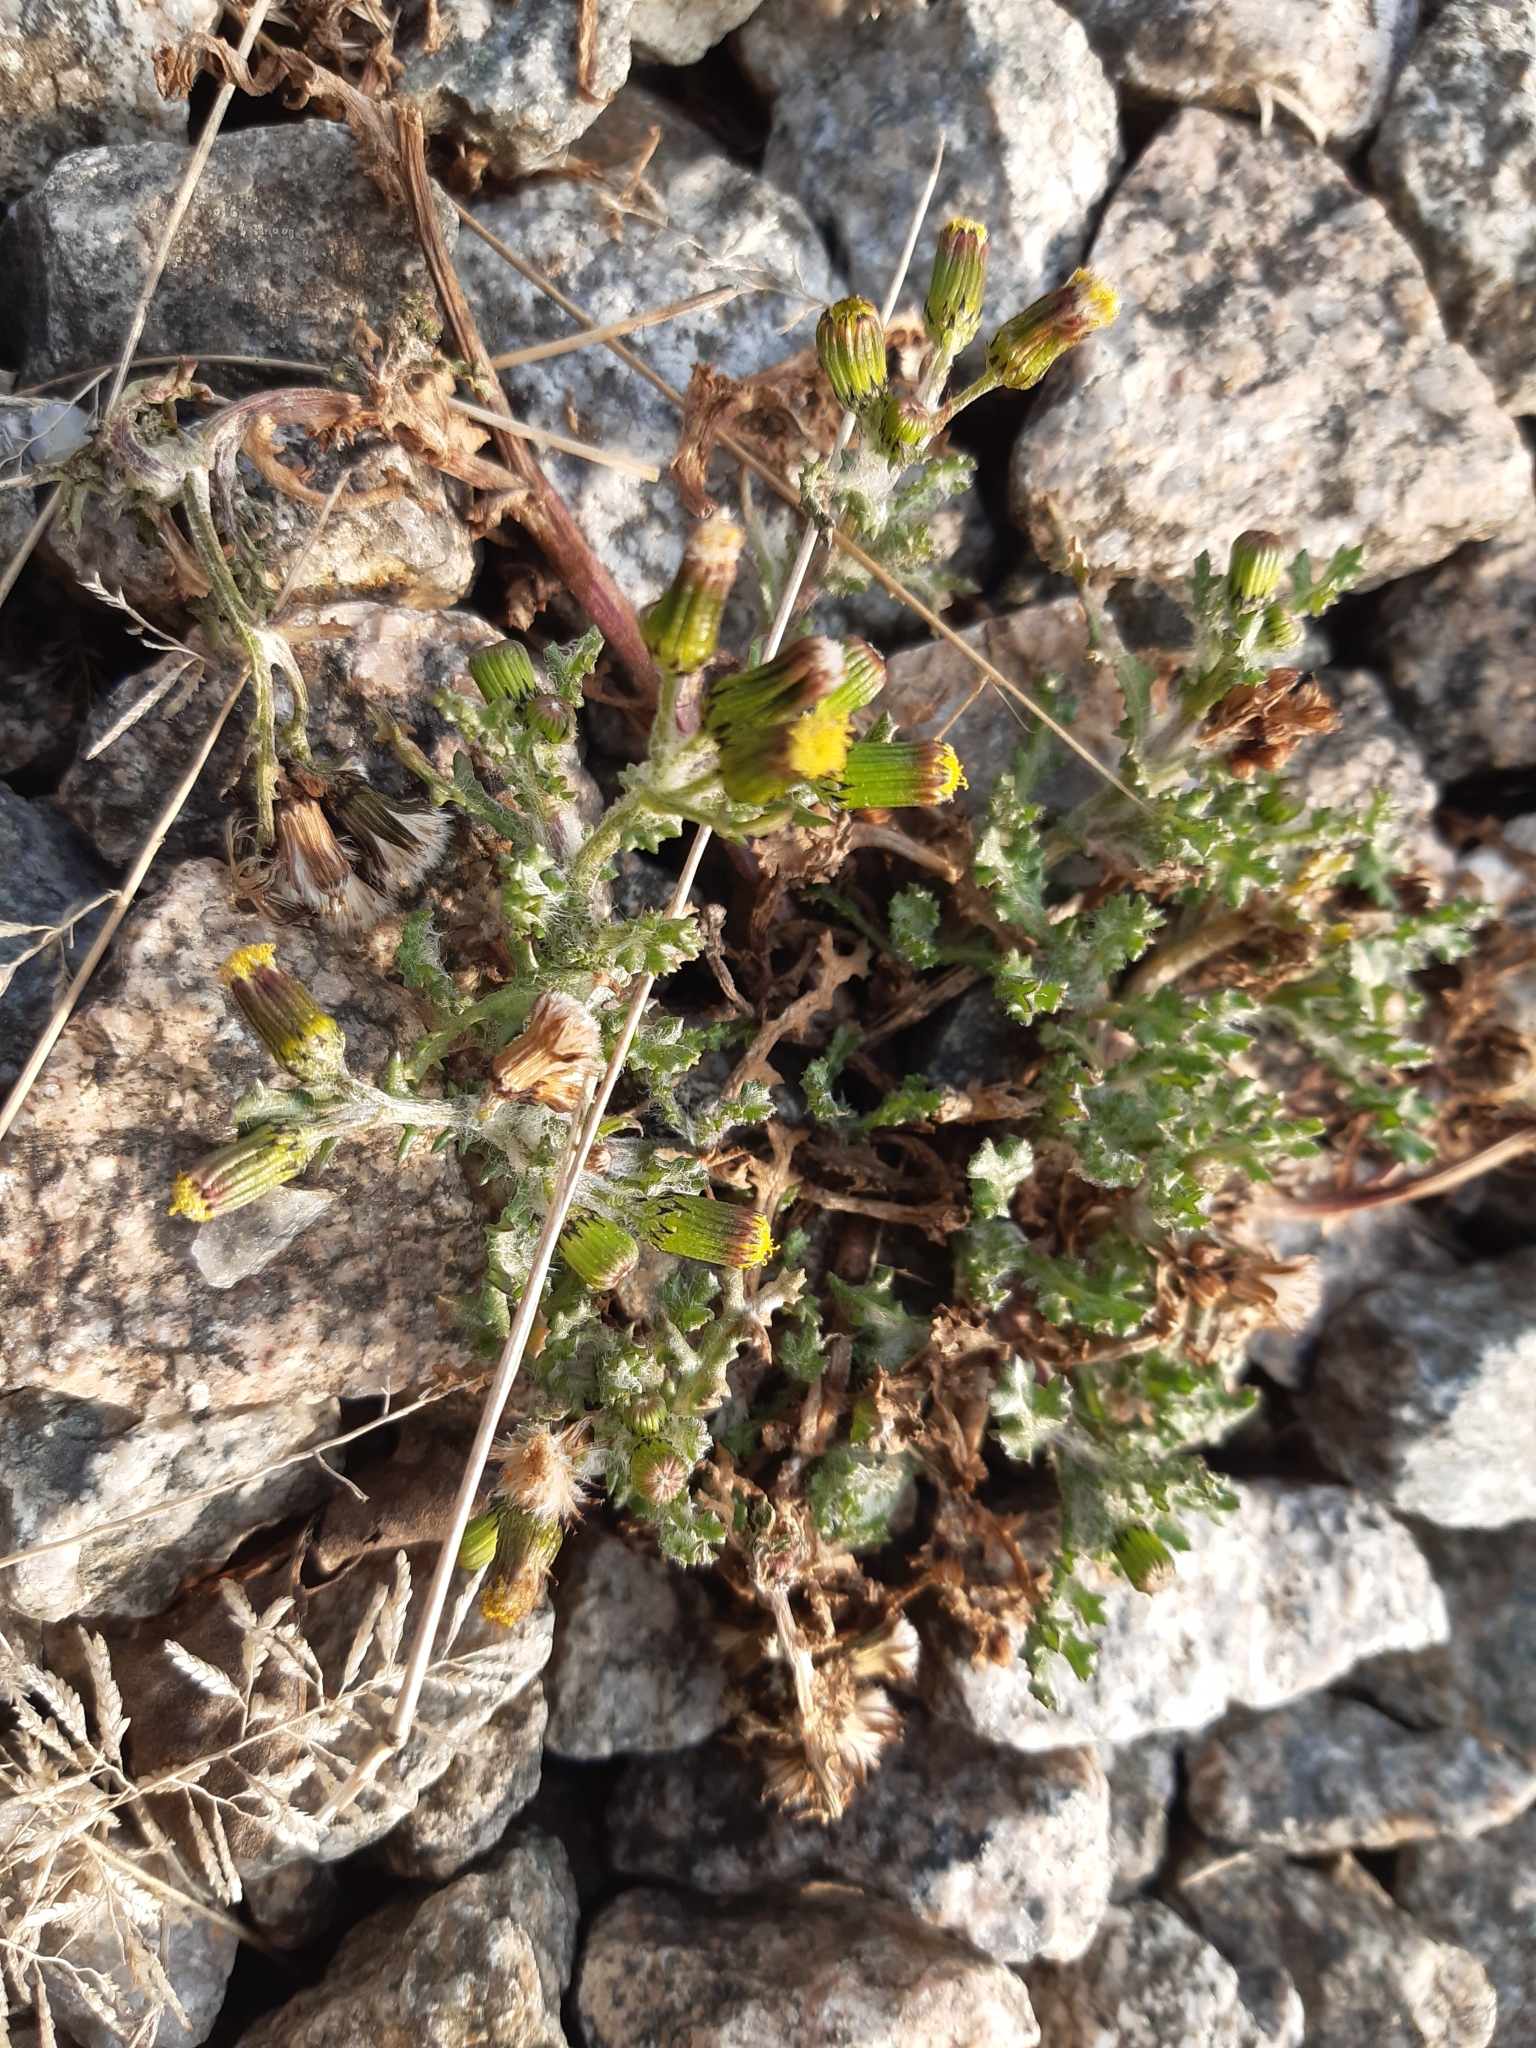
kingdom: Plantae
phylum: Tracheophyta
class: Magnoliopsida
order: Asterales
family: Asteraceae
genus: Senecio
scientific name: Senecio vulgaris
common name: Old-man-in-the-spring
